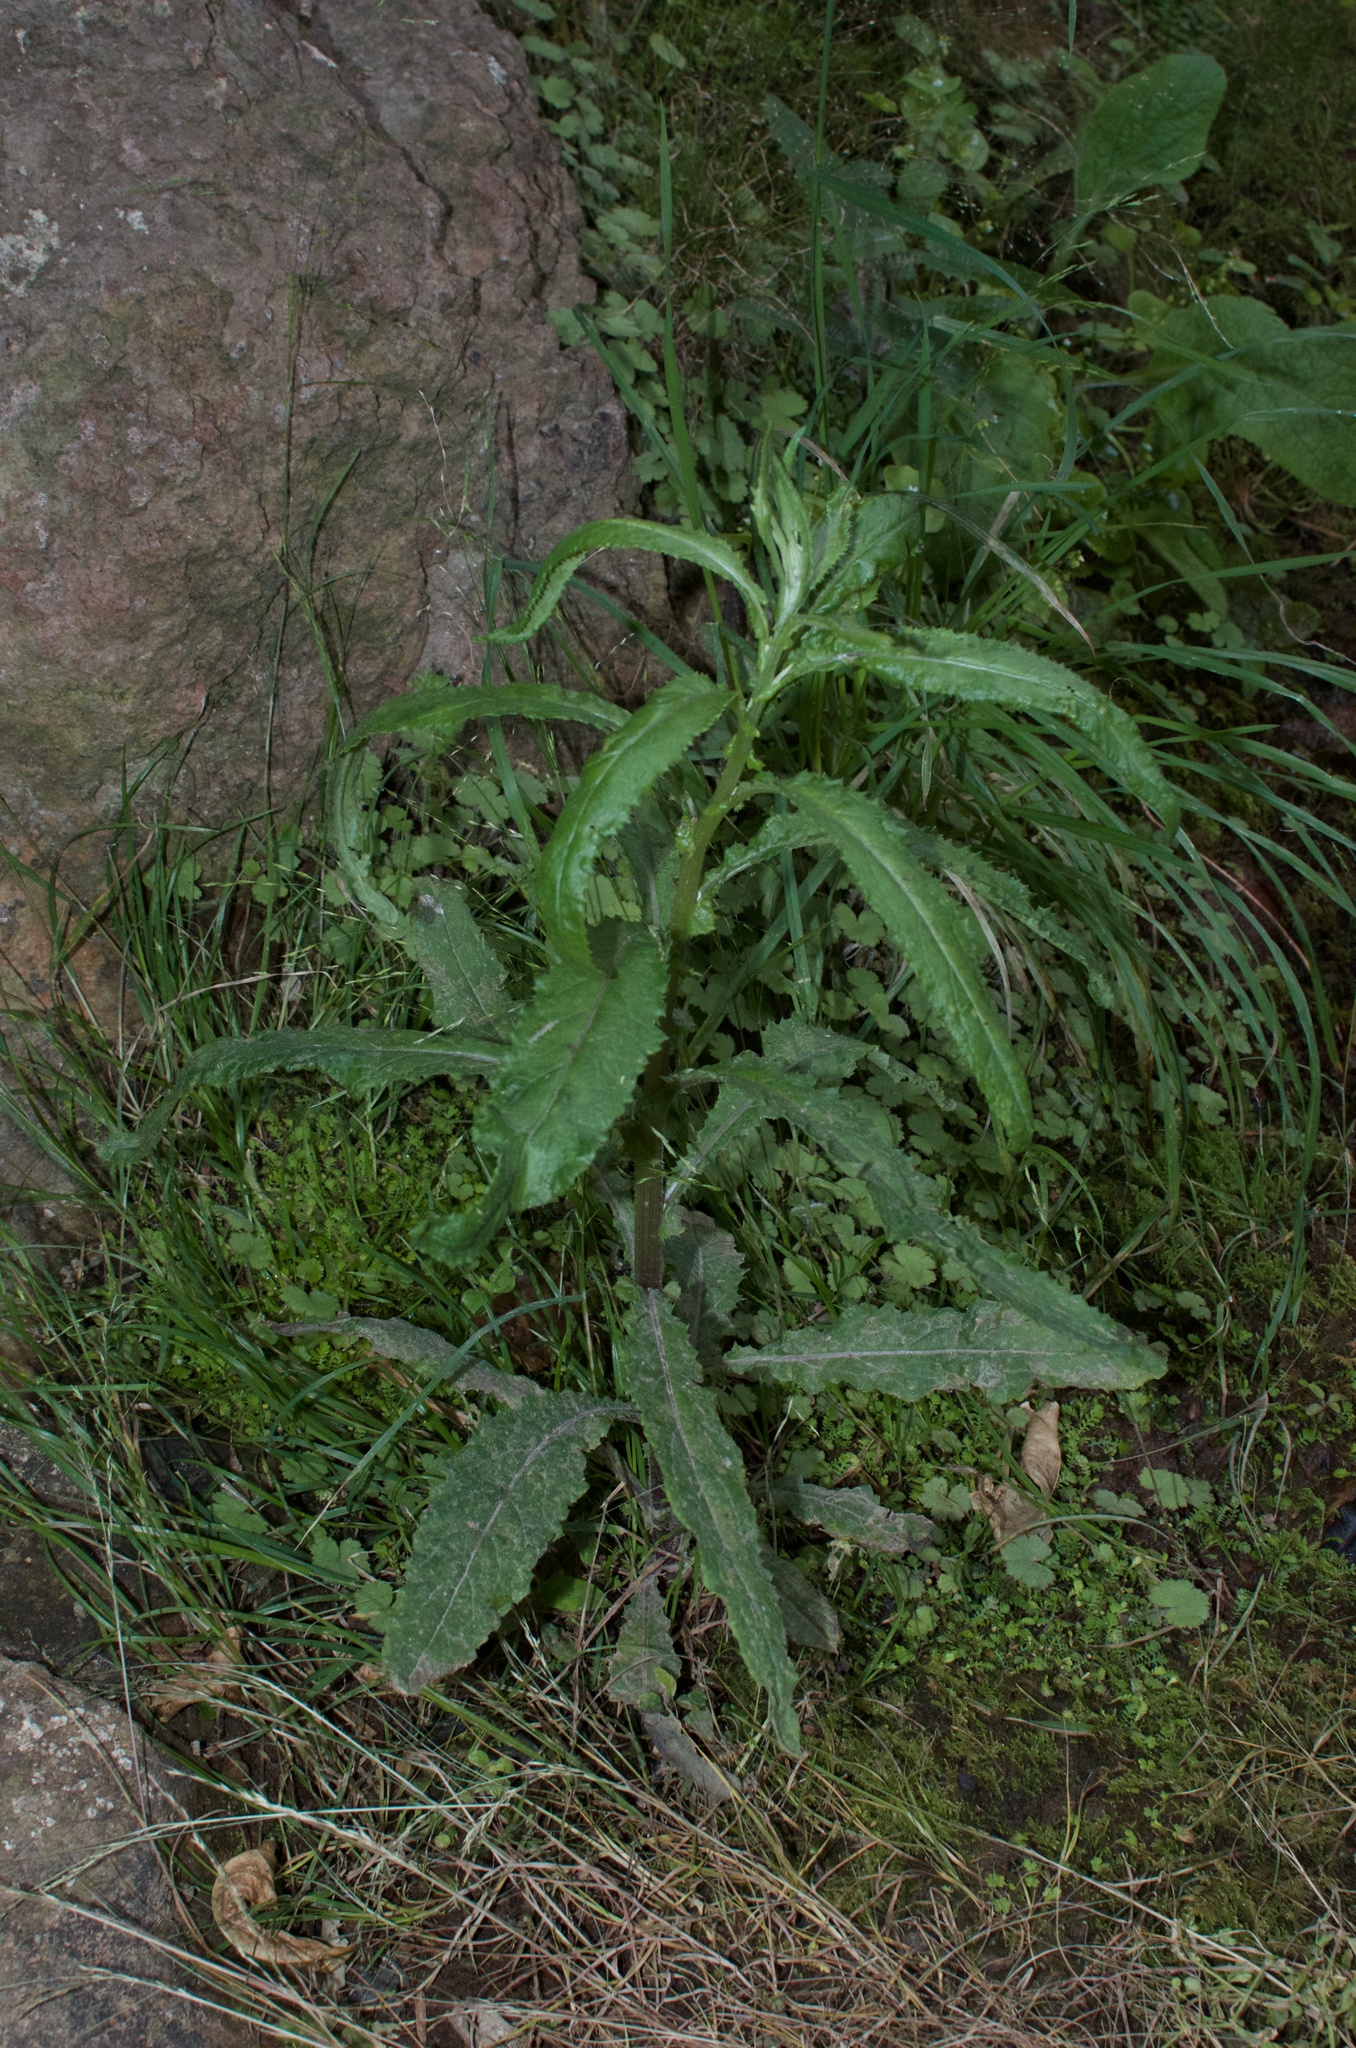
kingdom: Plantae
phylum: Tracheophyta
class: Magnoliopsida
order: Asterales
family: Asteraceae
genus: Senecio
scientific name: Senecio minimus
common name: Toothed fireweed
